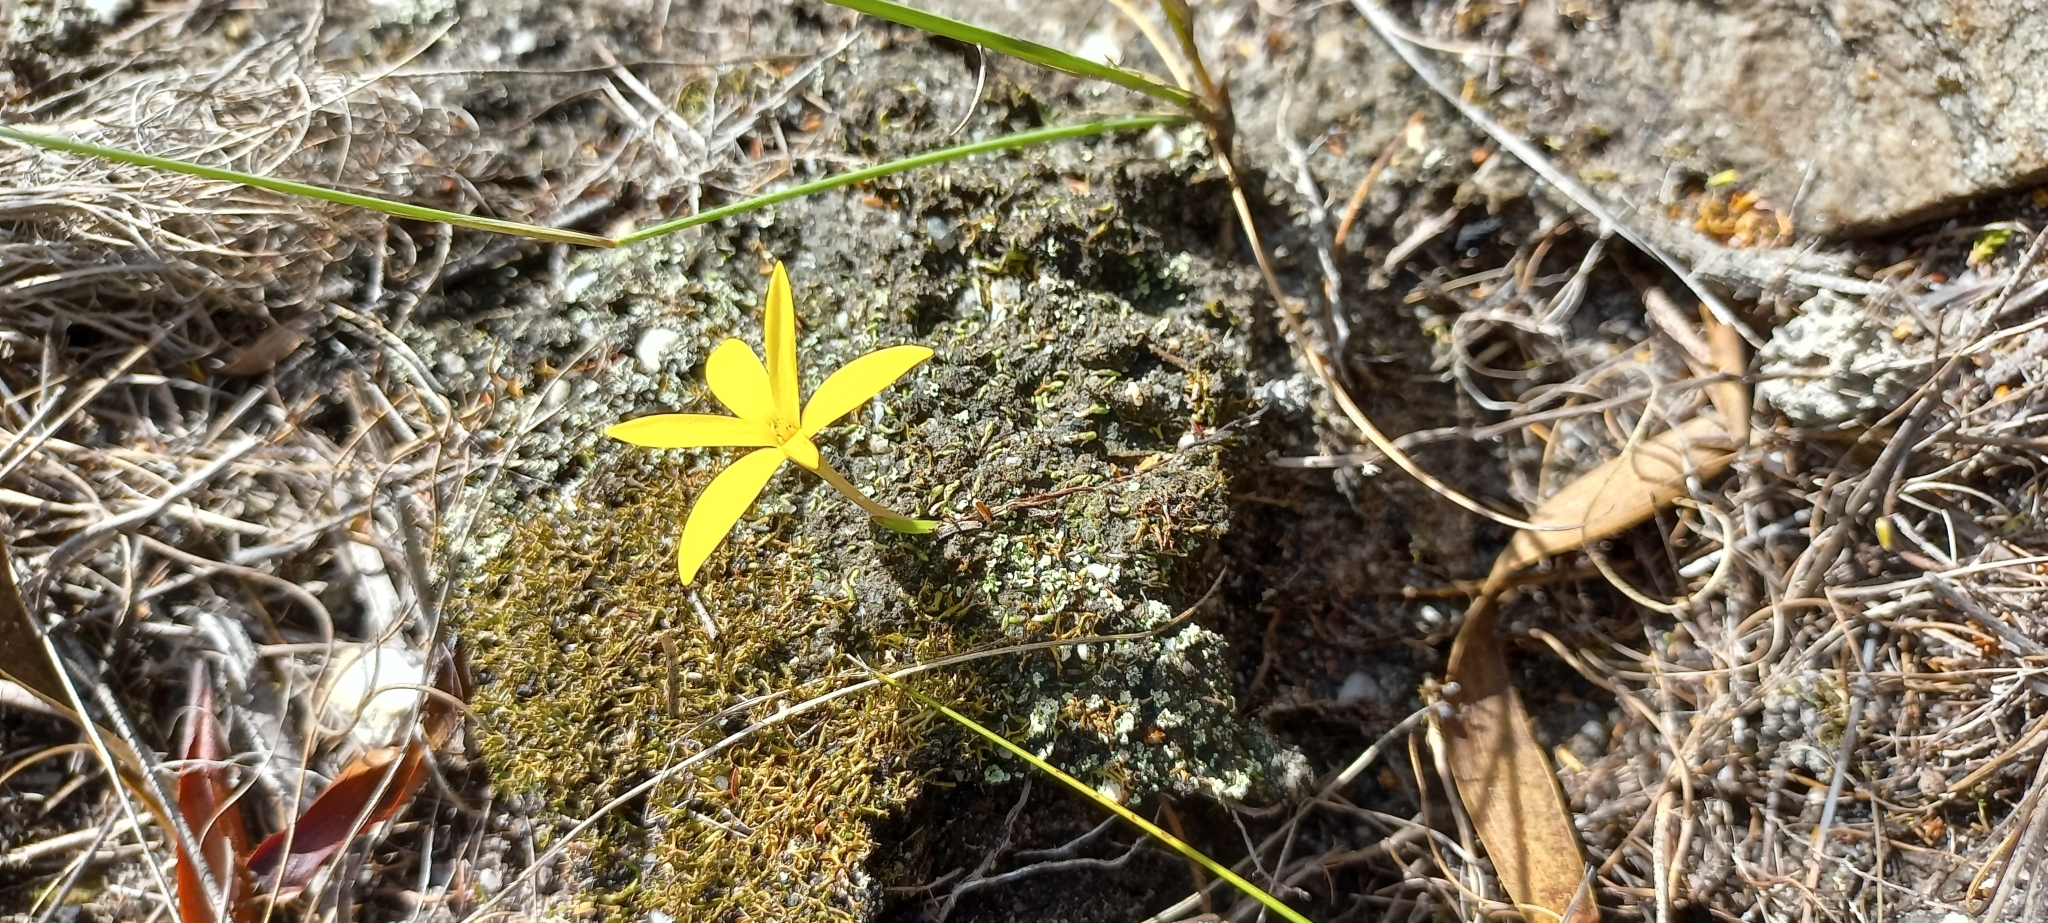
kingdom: Plantae
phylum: Tracheophyta
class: Liliopsida
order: Asparagales
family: Hypoxidaceae
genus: Pauridia
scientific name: Pauridia monophylla
